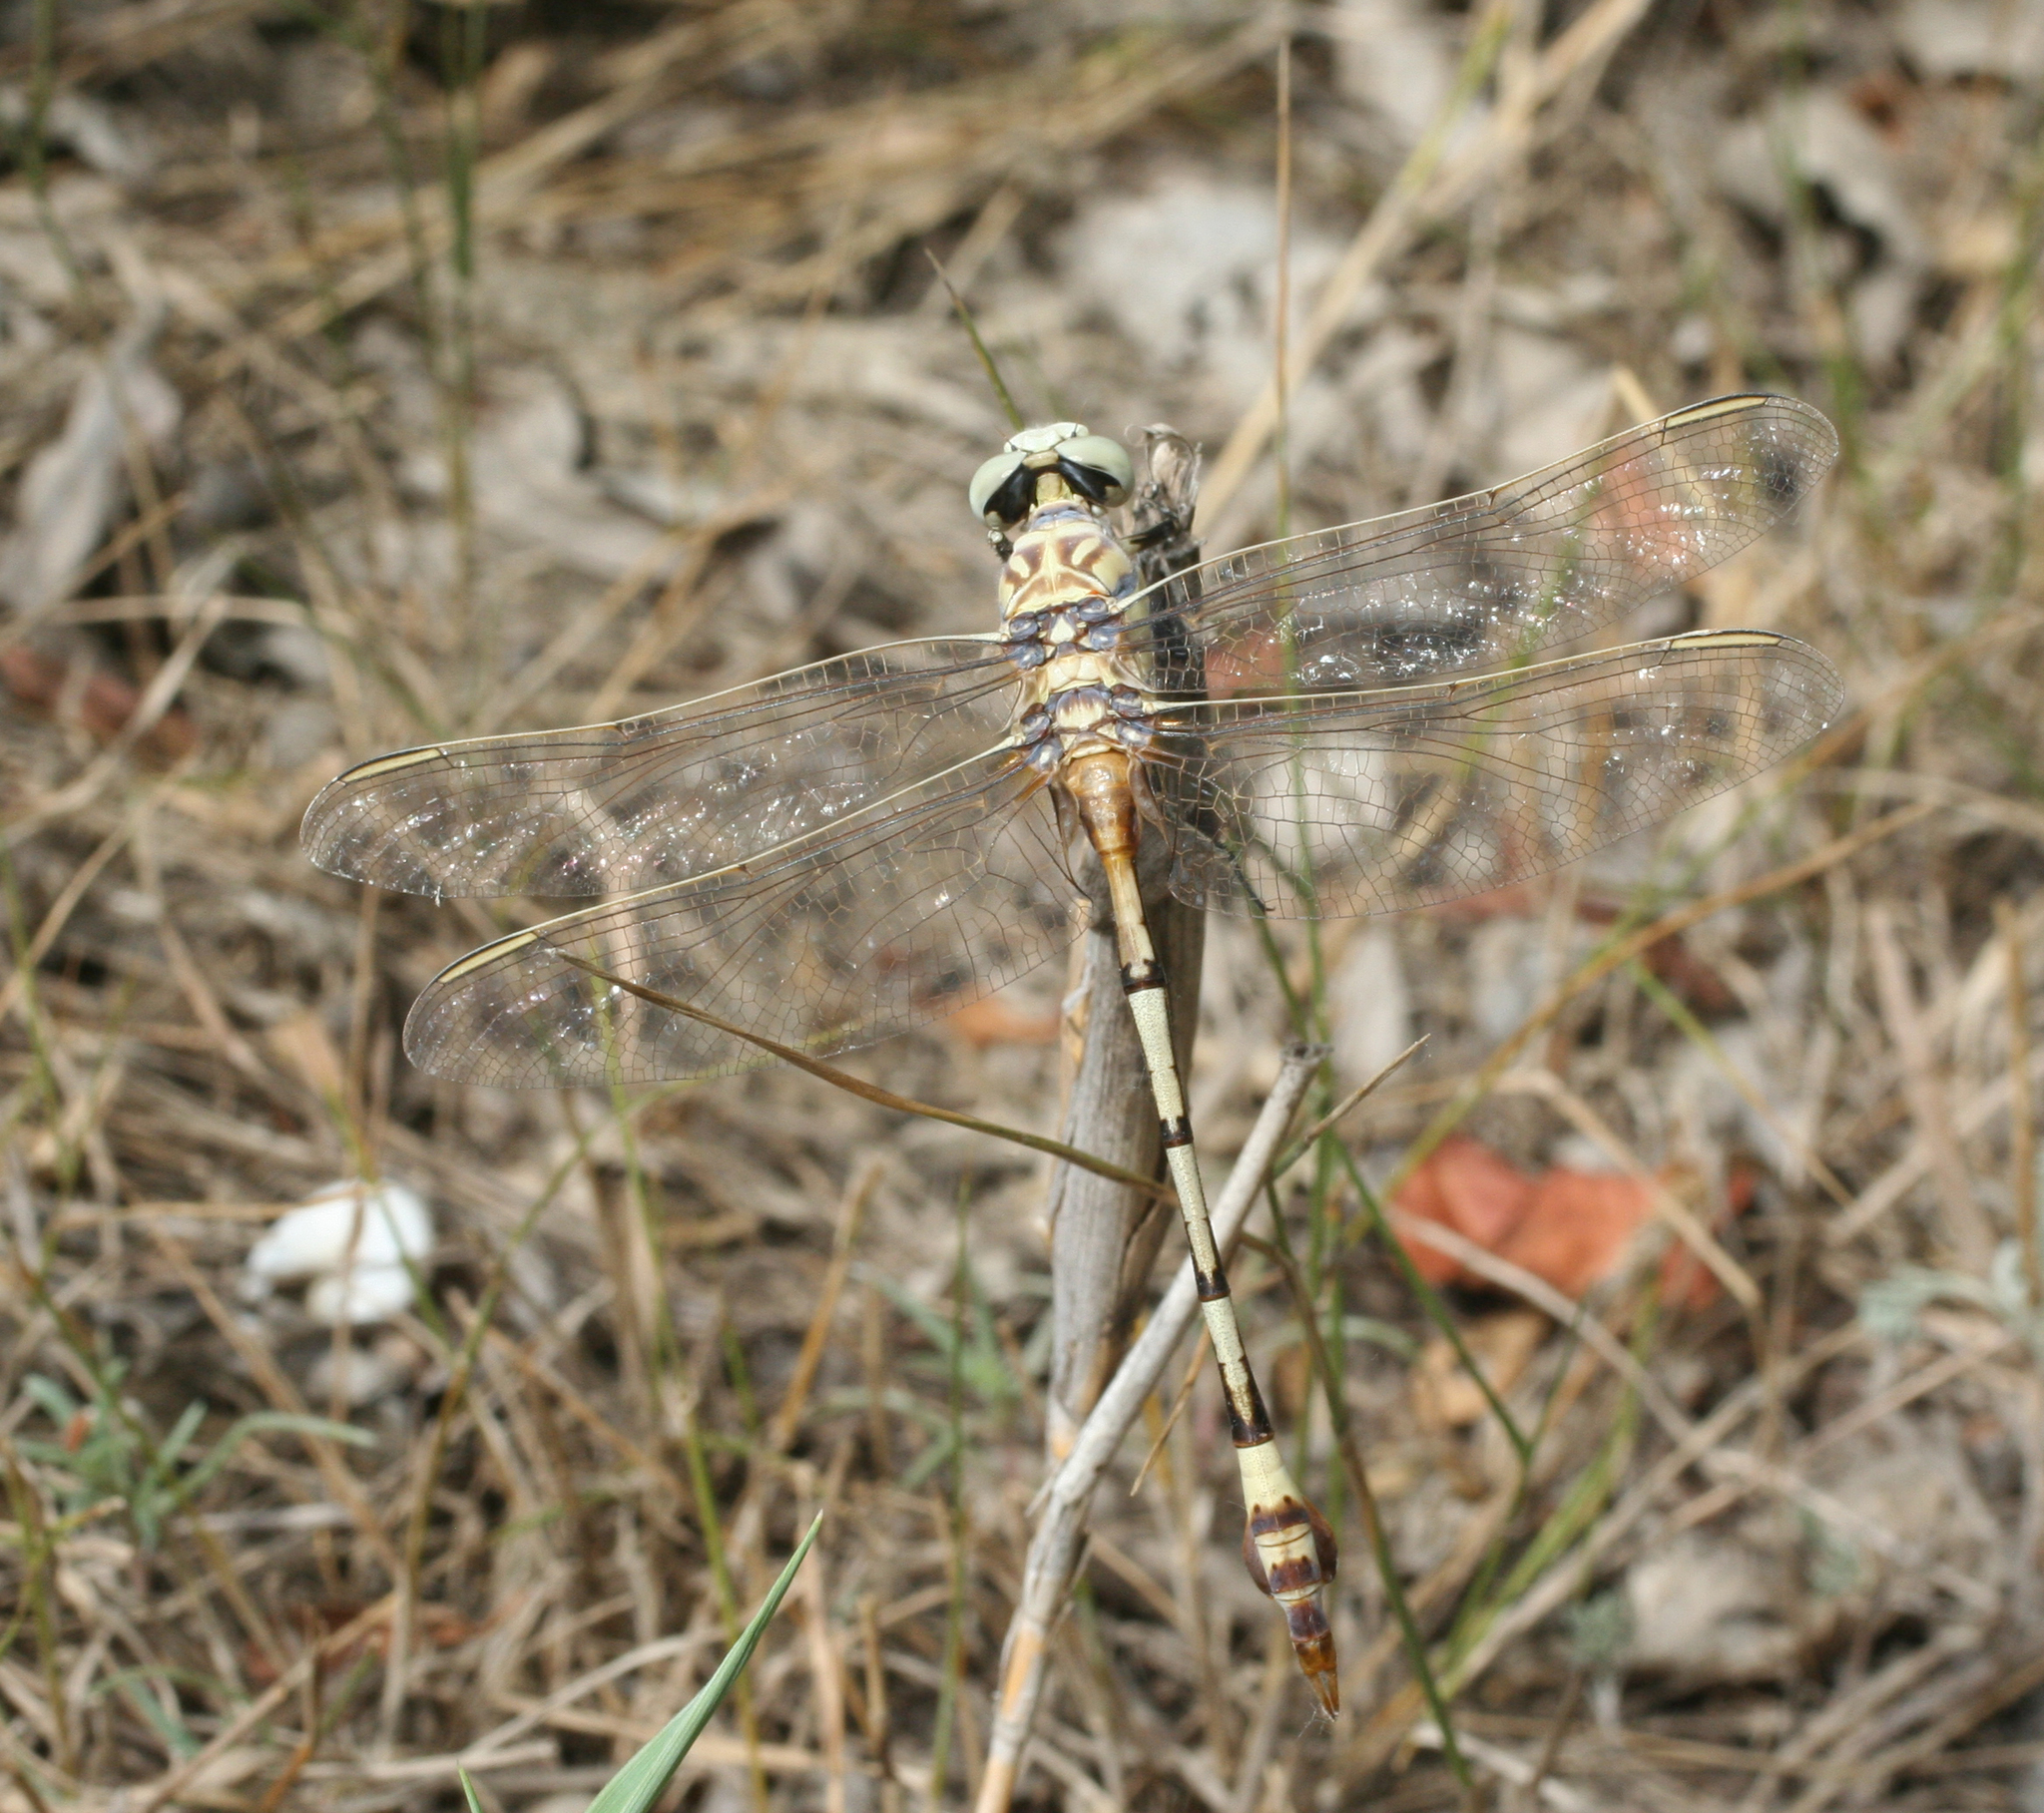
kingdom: Animalia
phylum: Arthropoda
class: Insecta
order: Odonata
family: Gomphidae
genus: Lindenia
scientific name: Lindenia tetraphylla
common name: Bladetail
